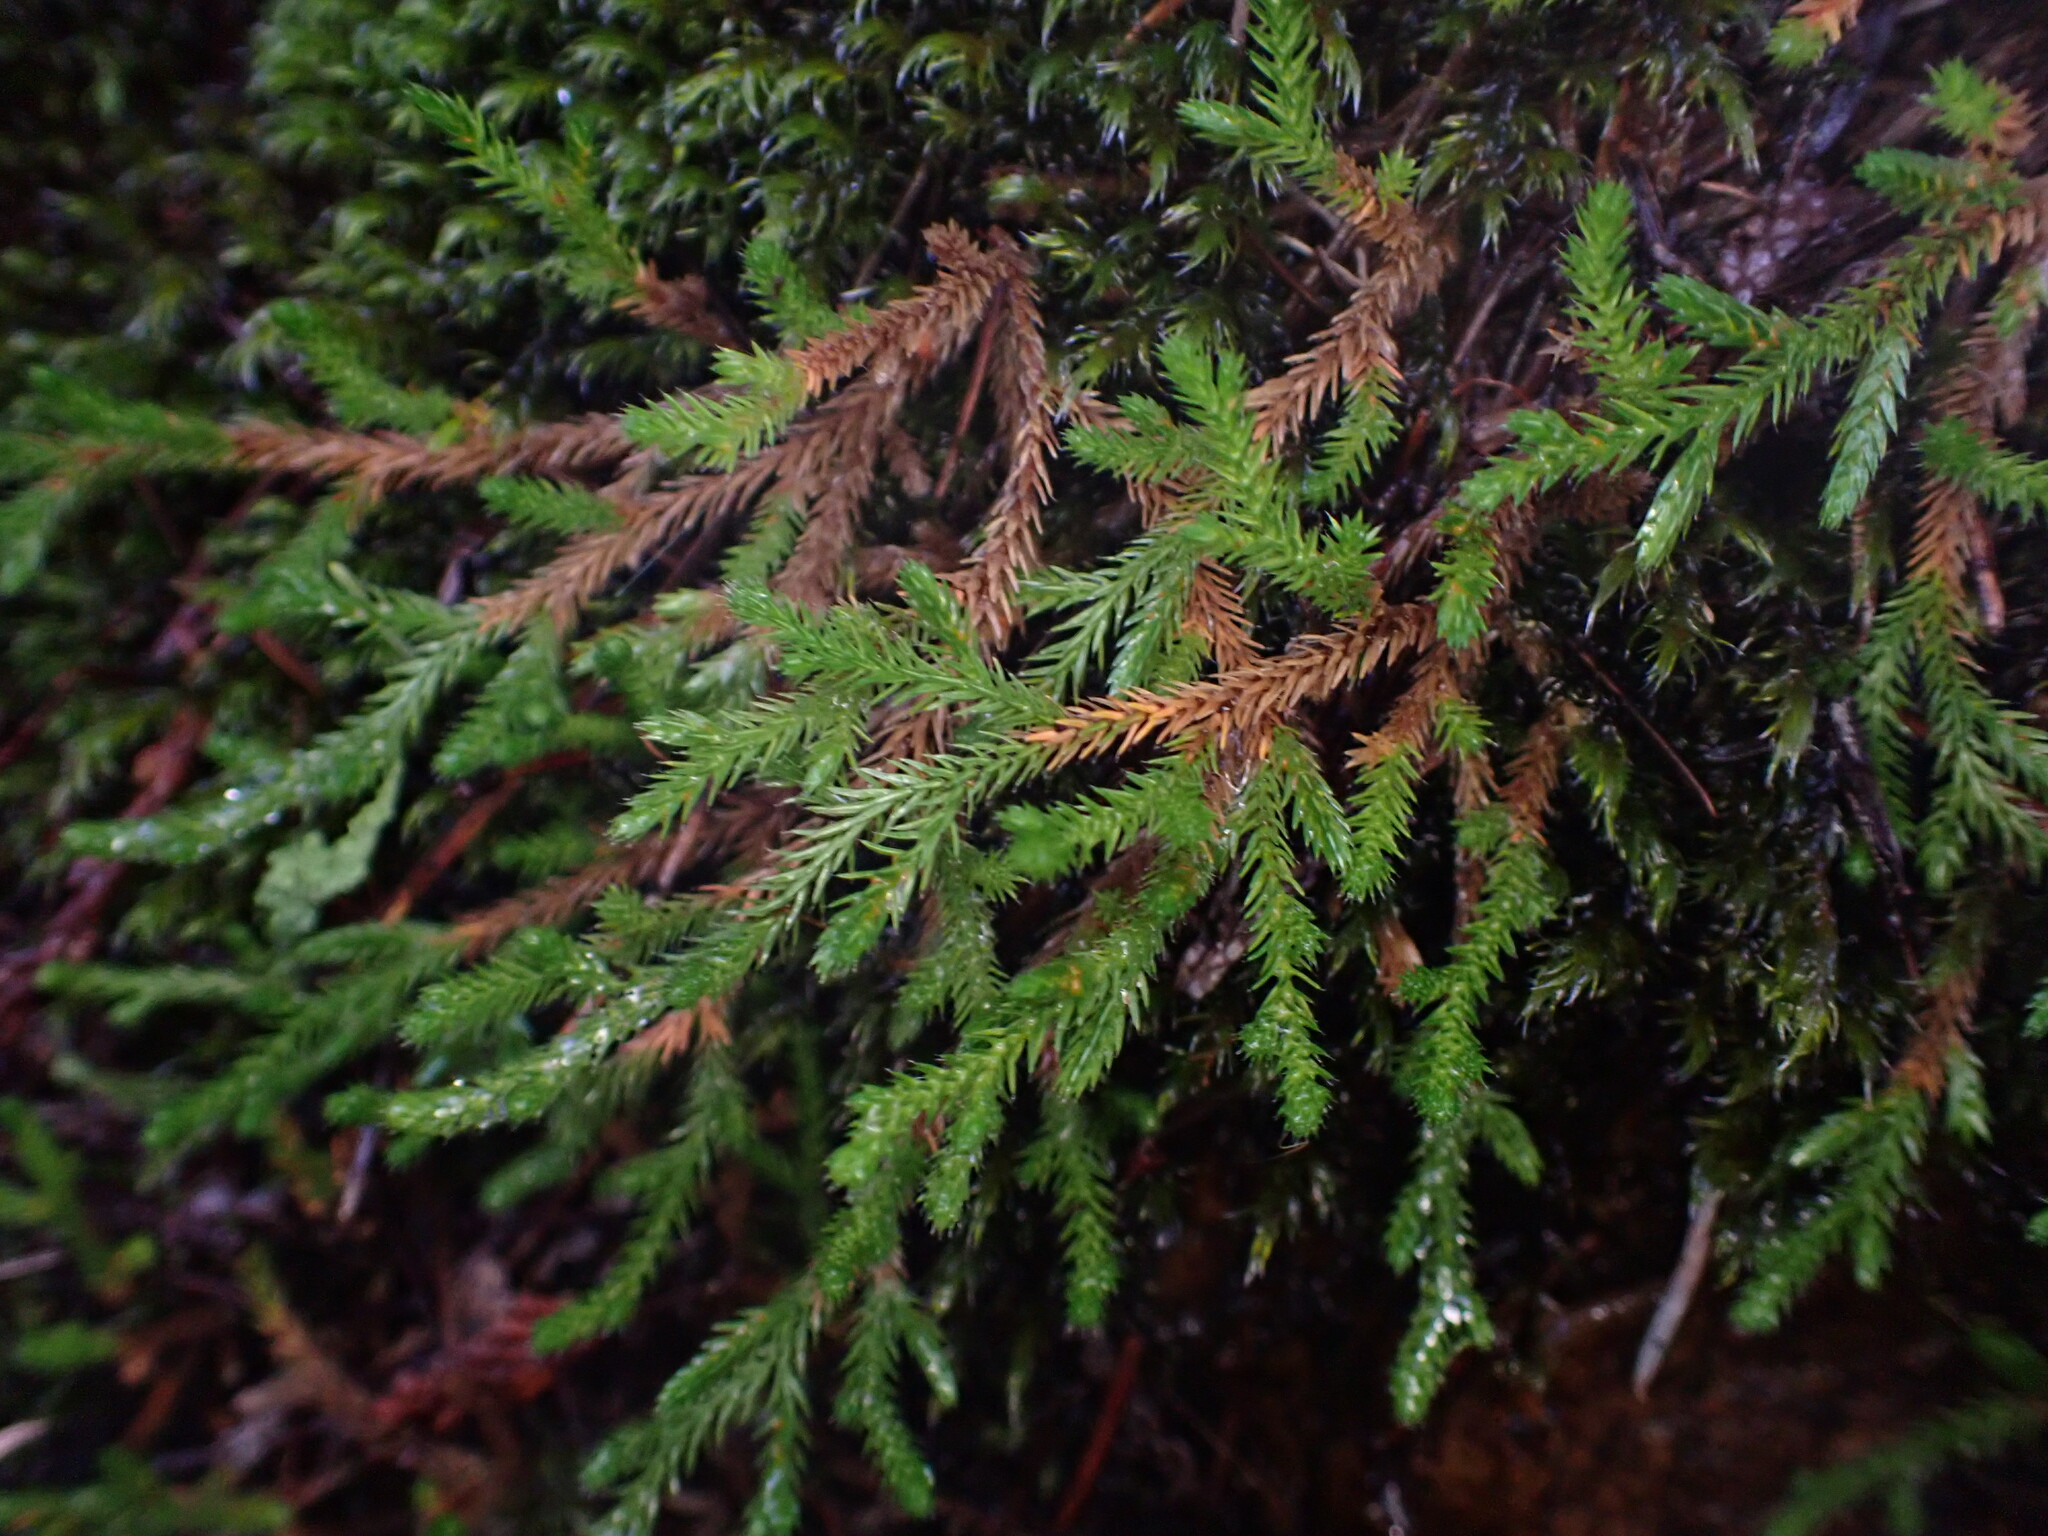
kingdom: Plantae
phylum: Tracheophyta
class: Lycopodiopsida
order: Selaginellales
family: Selaginellaceae
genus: Selaginella
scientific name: Selaginella wallacei
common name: Wallace's selaginella
